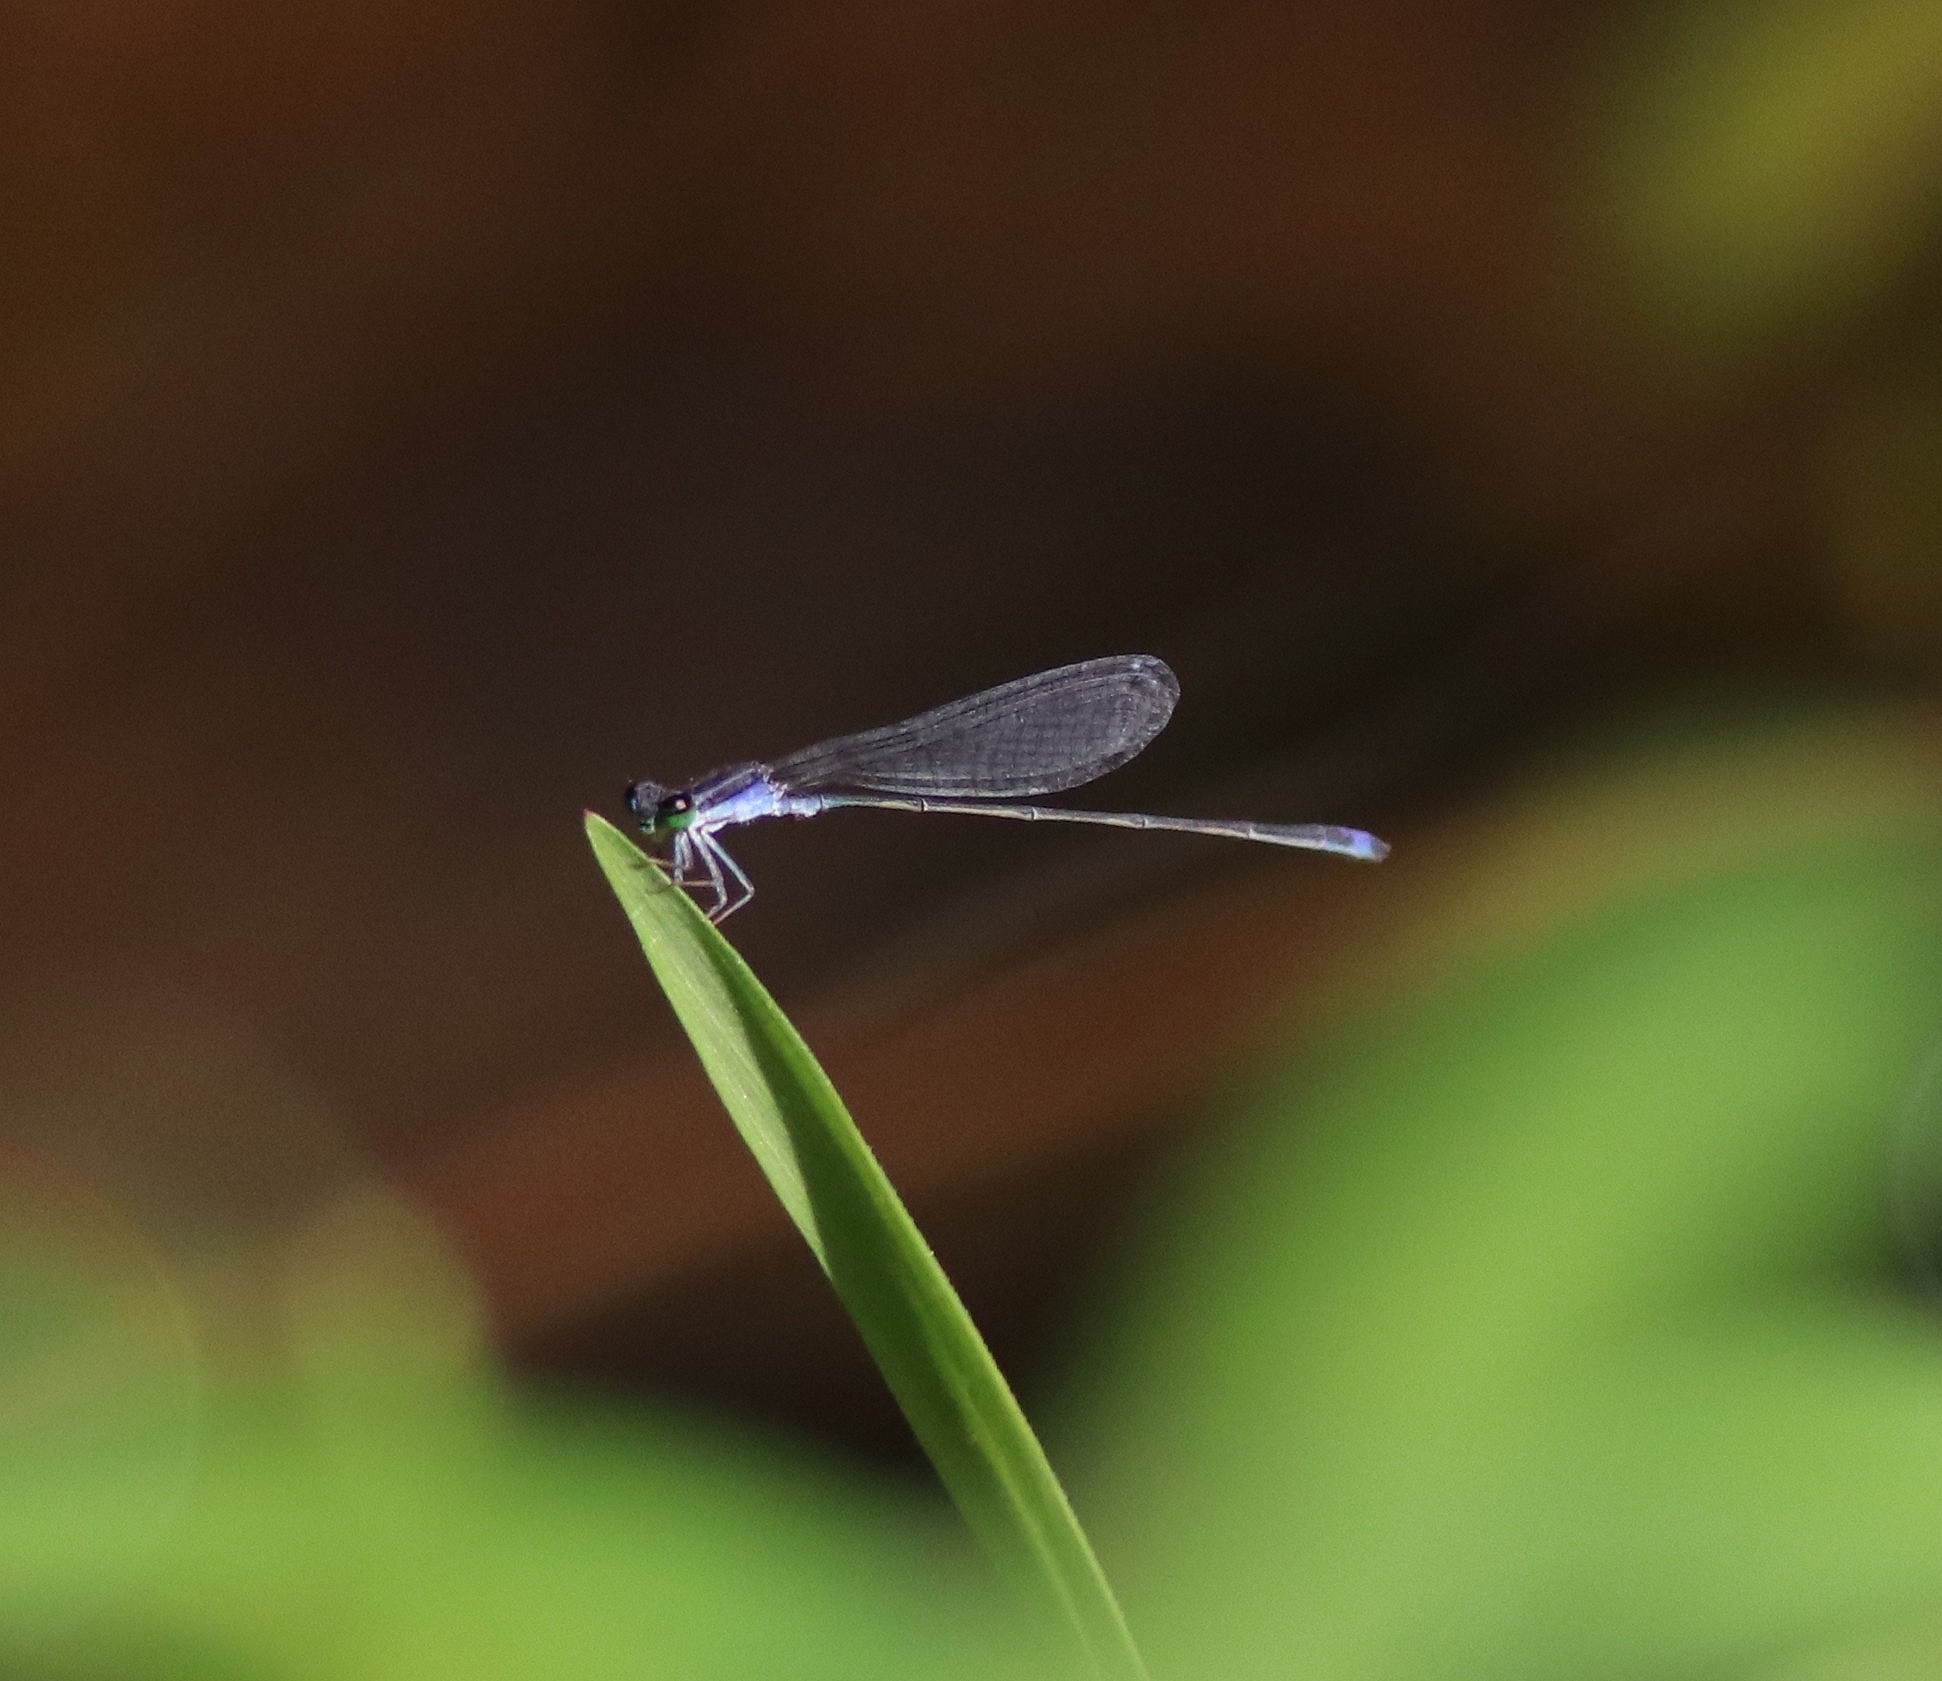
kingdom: Animalia
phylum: Arthropoda
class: Insecta
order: Odonata
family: Coenagrionidae
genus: Aciagrion
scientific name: Aciagrion approximans
